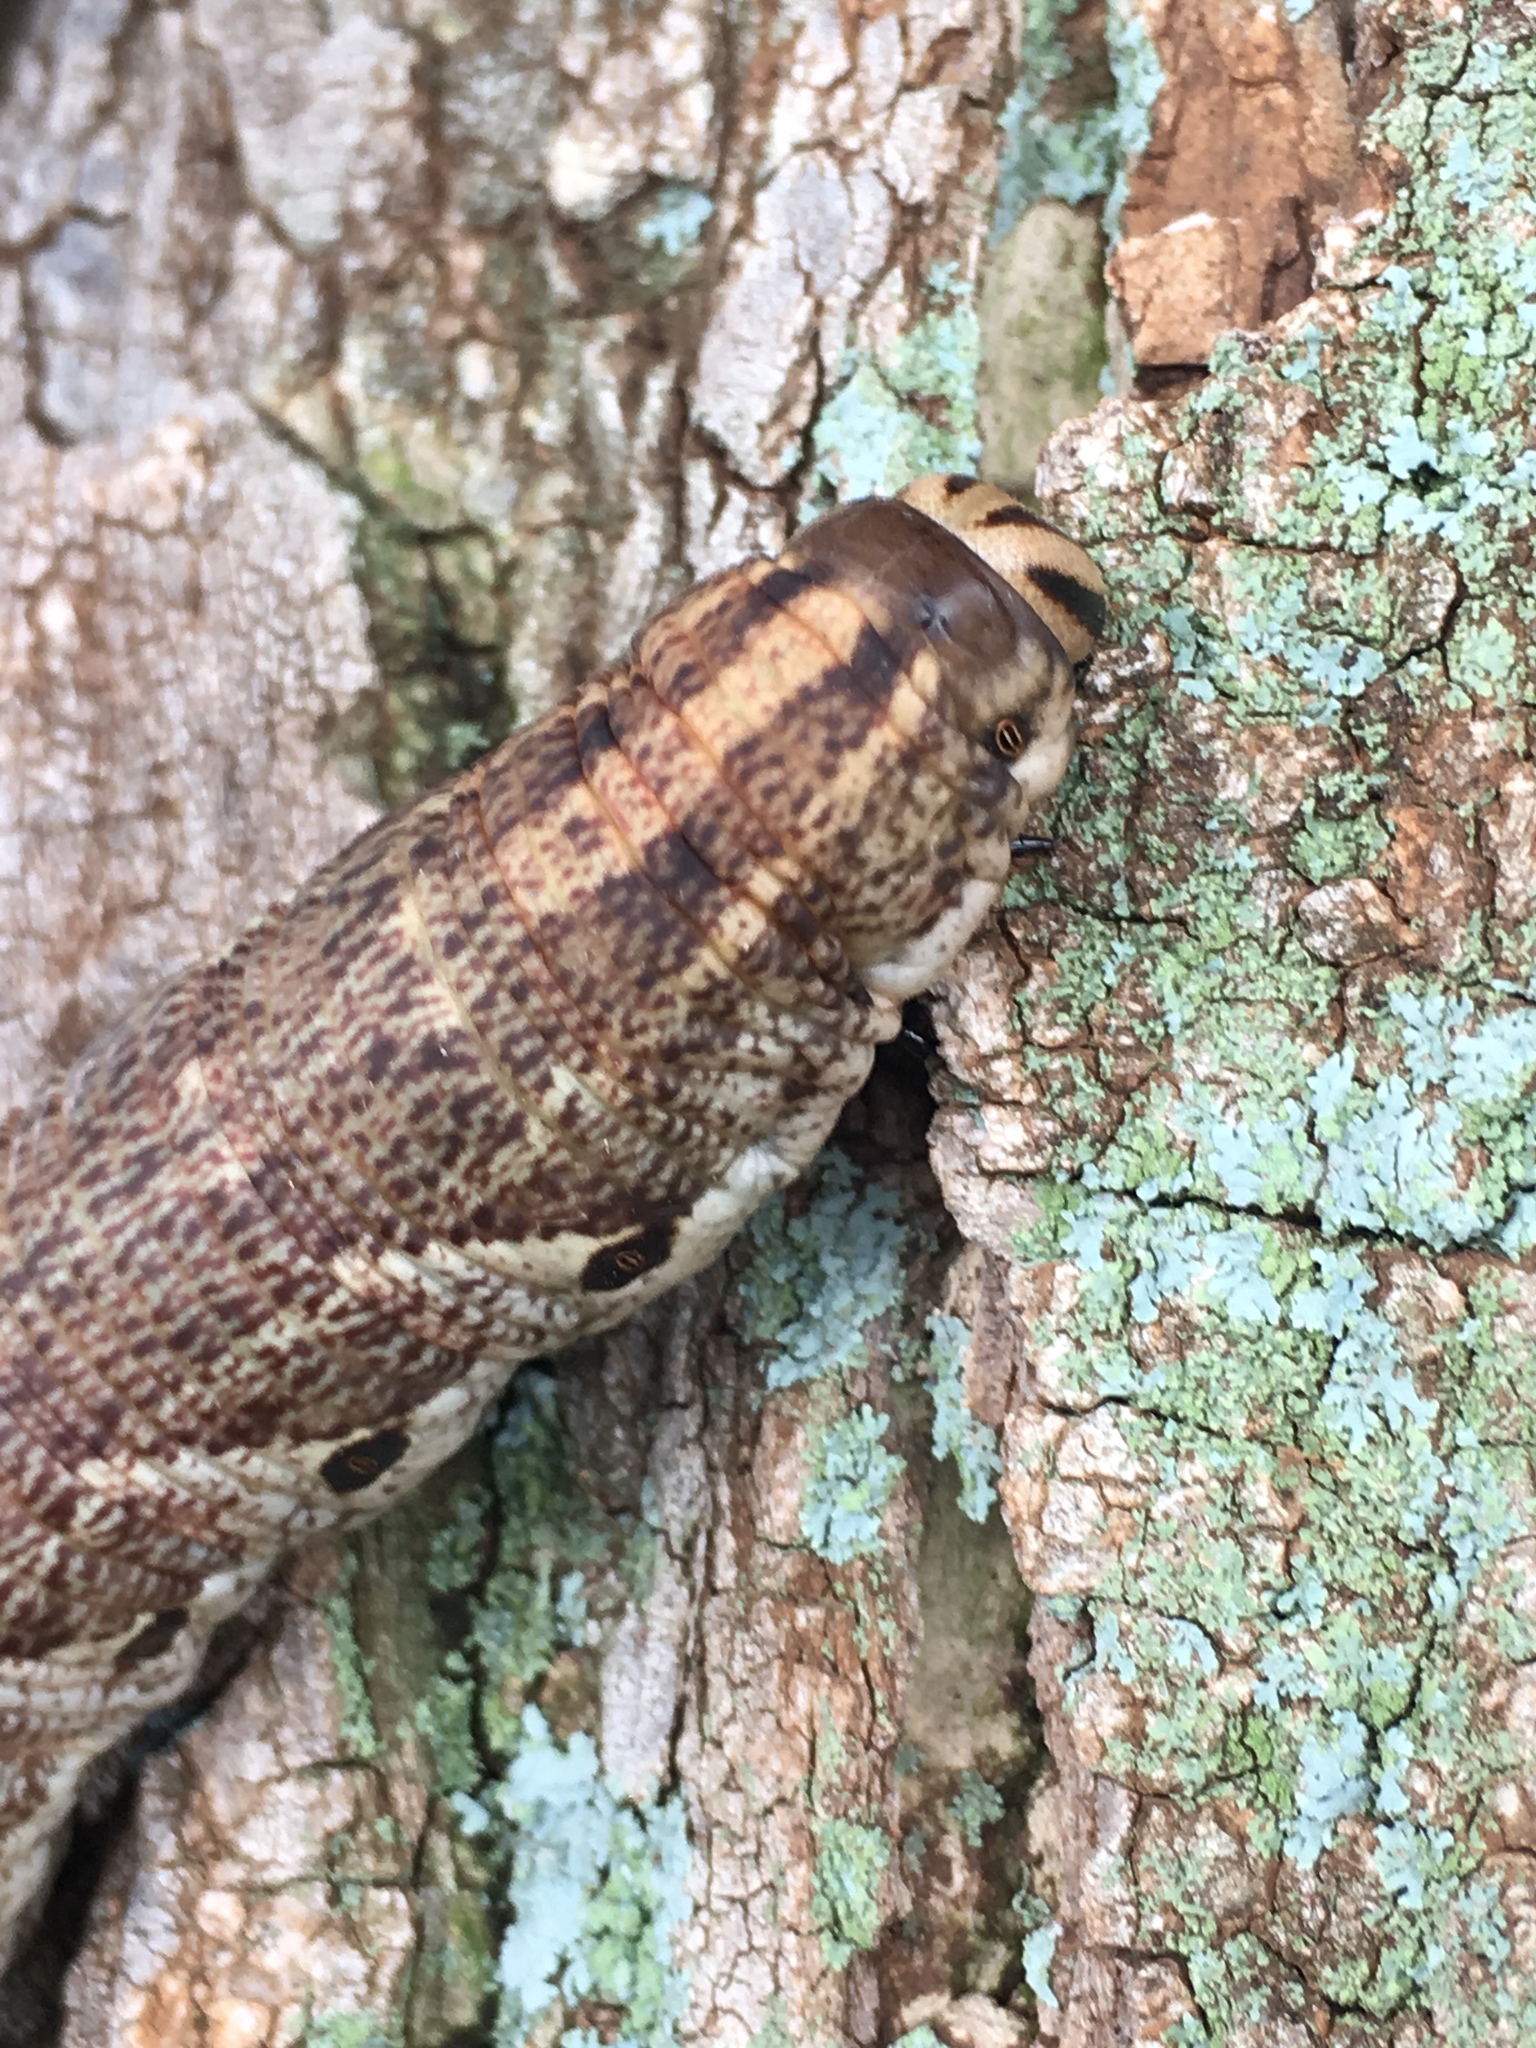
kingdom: Animalia
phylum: Arthropoda
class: Insecta
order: Lepidoptera
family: Sphingidae
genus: Agrius
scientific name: Agrius cingulata
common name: Pink-spotted hawkmoth
